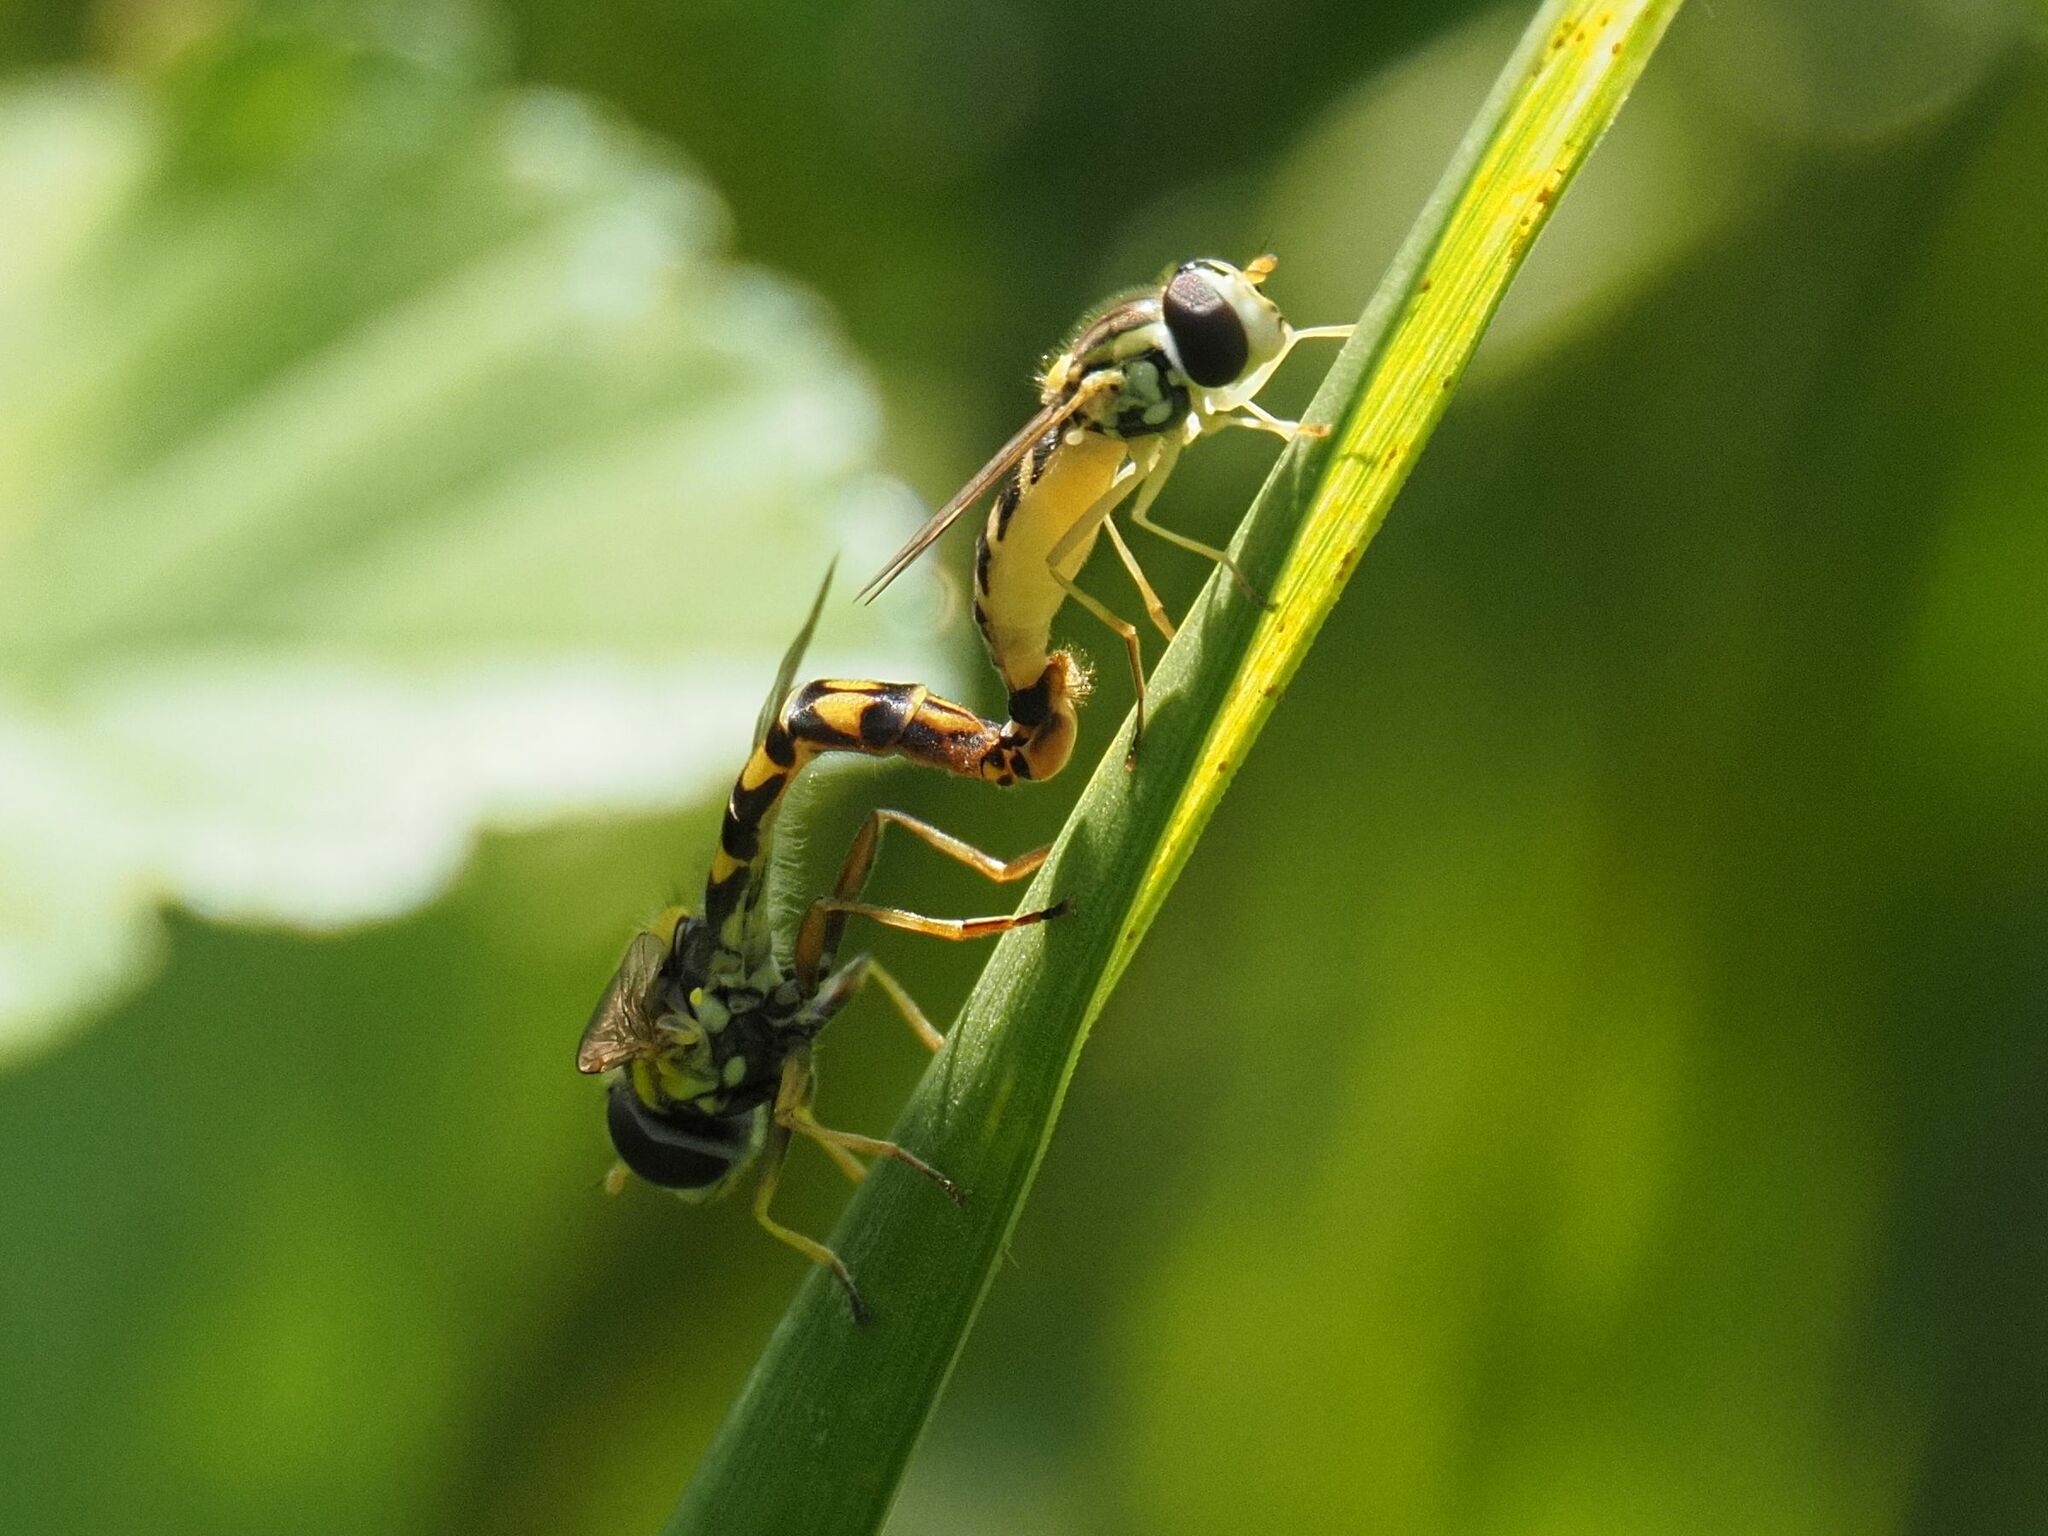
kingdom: Animalia
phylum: Arthropoda
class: Insecta
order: Diptera
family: Syrphidae
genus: Sphaerophoria
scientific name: Sphaerophoria scripta
